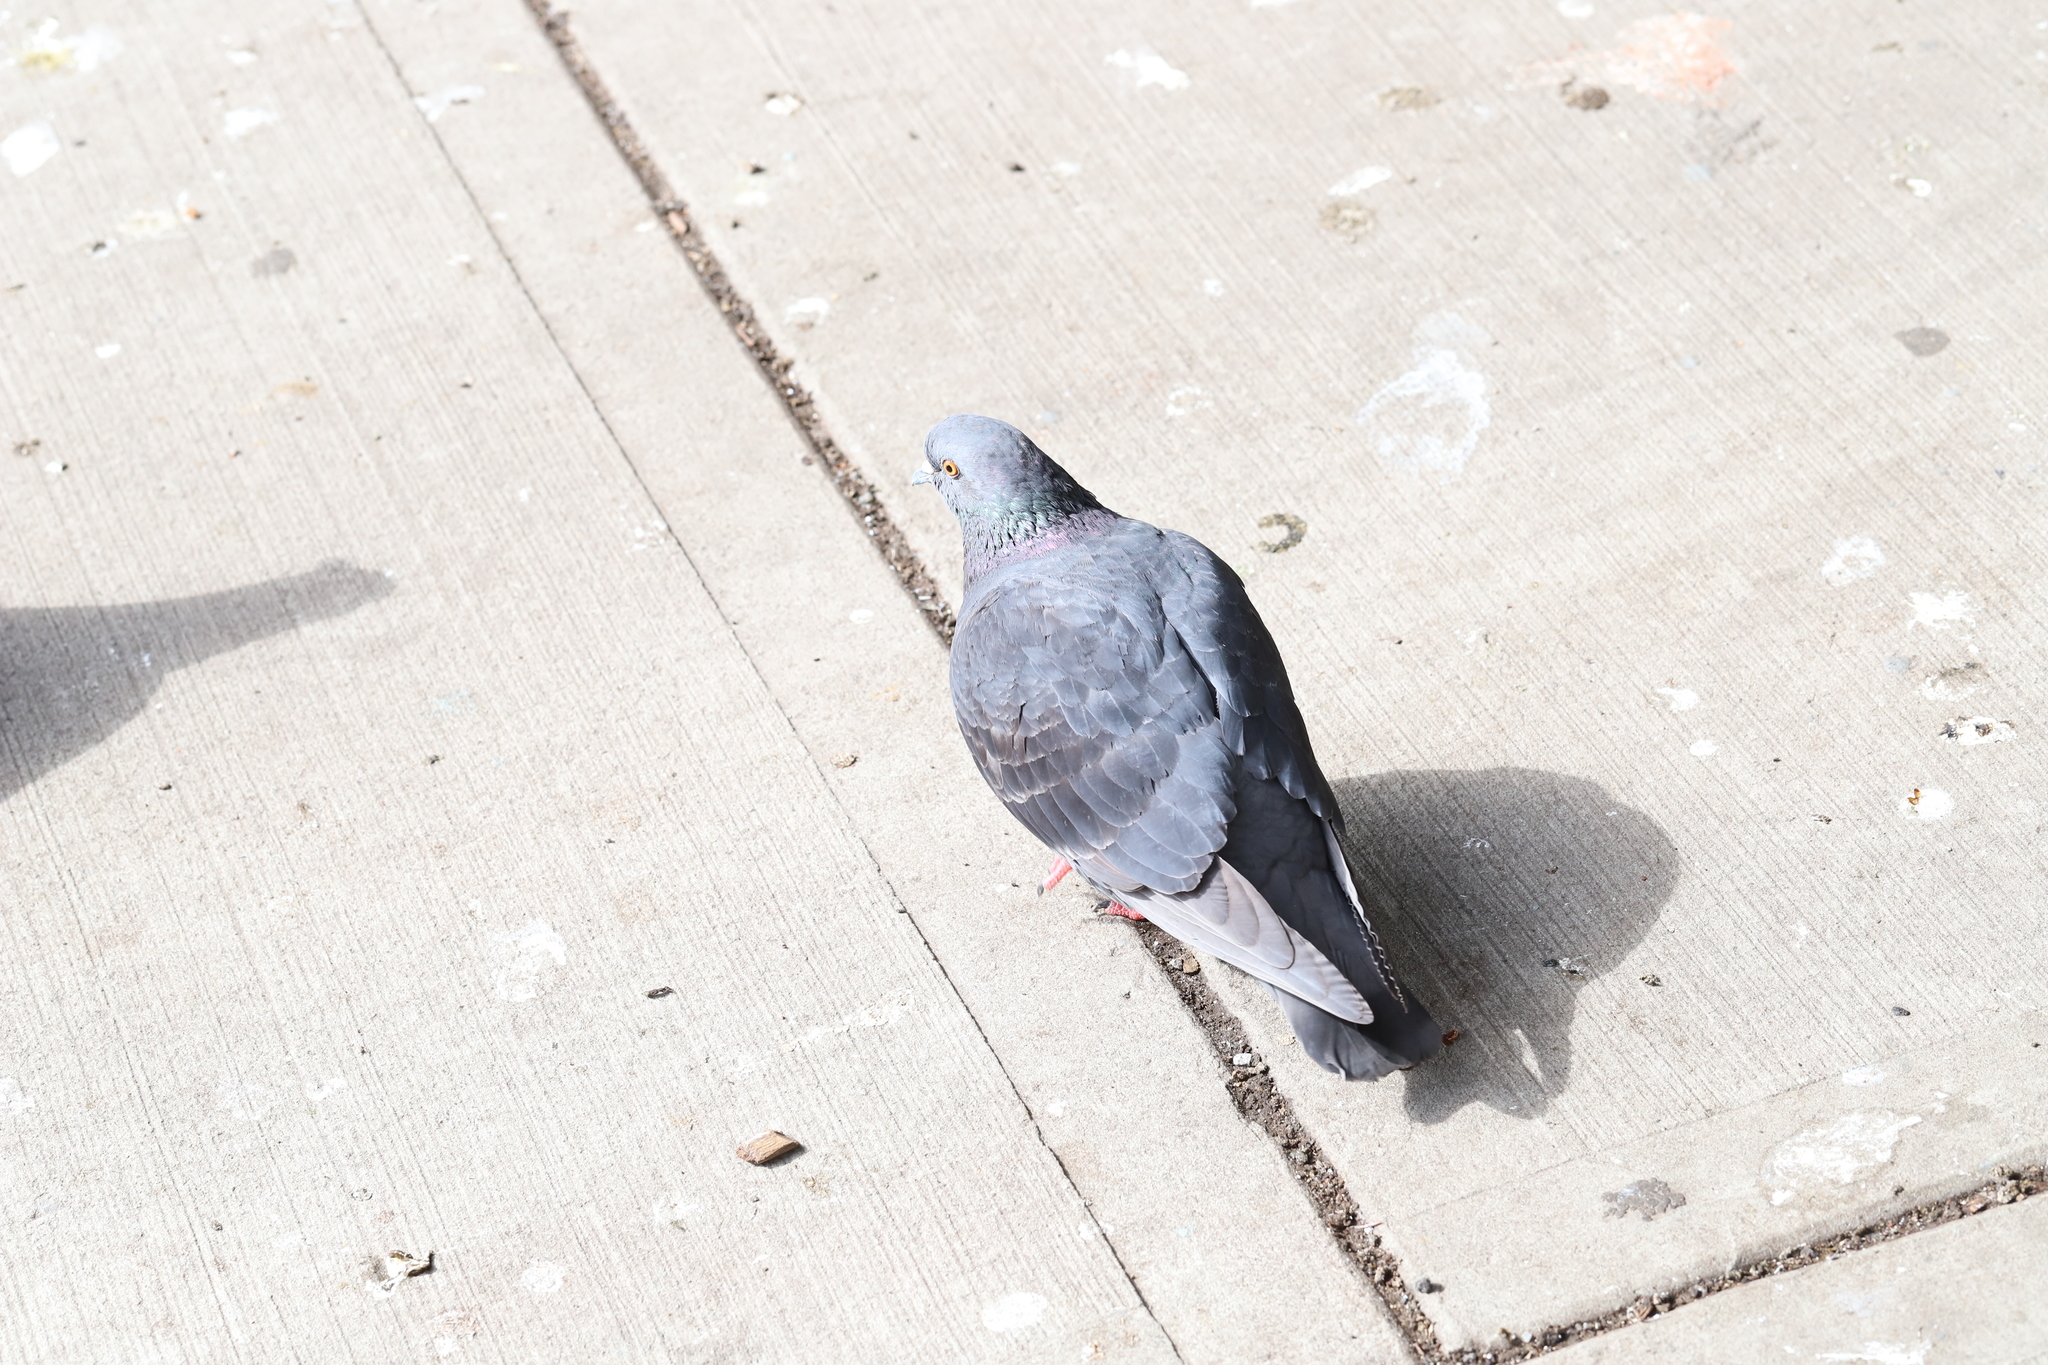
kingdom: Animalia
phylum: Chordata
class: Aves
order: Columbiformes
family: Columbidae
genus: Columba
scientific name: Columba livia
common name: Rock pigeon
